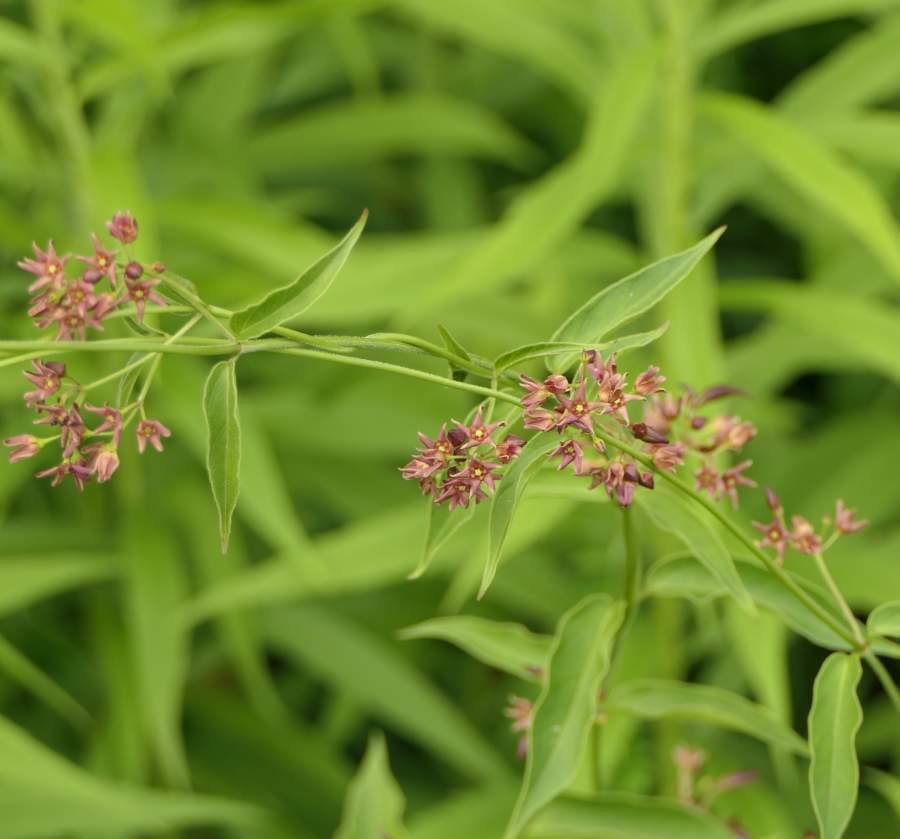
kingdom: Plantae
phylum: Tracheophyta
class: Magnoliopsida
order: Gentianales
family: Apocynaceae
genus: Vincetoxicum
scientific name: Vincetoxicum rossicum
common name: Dog-strangling vine
